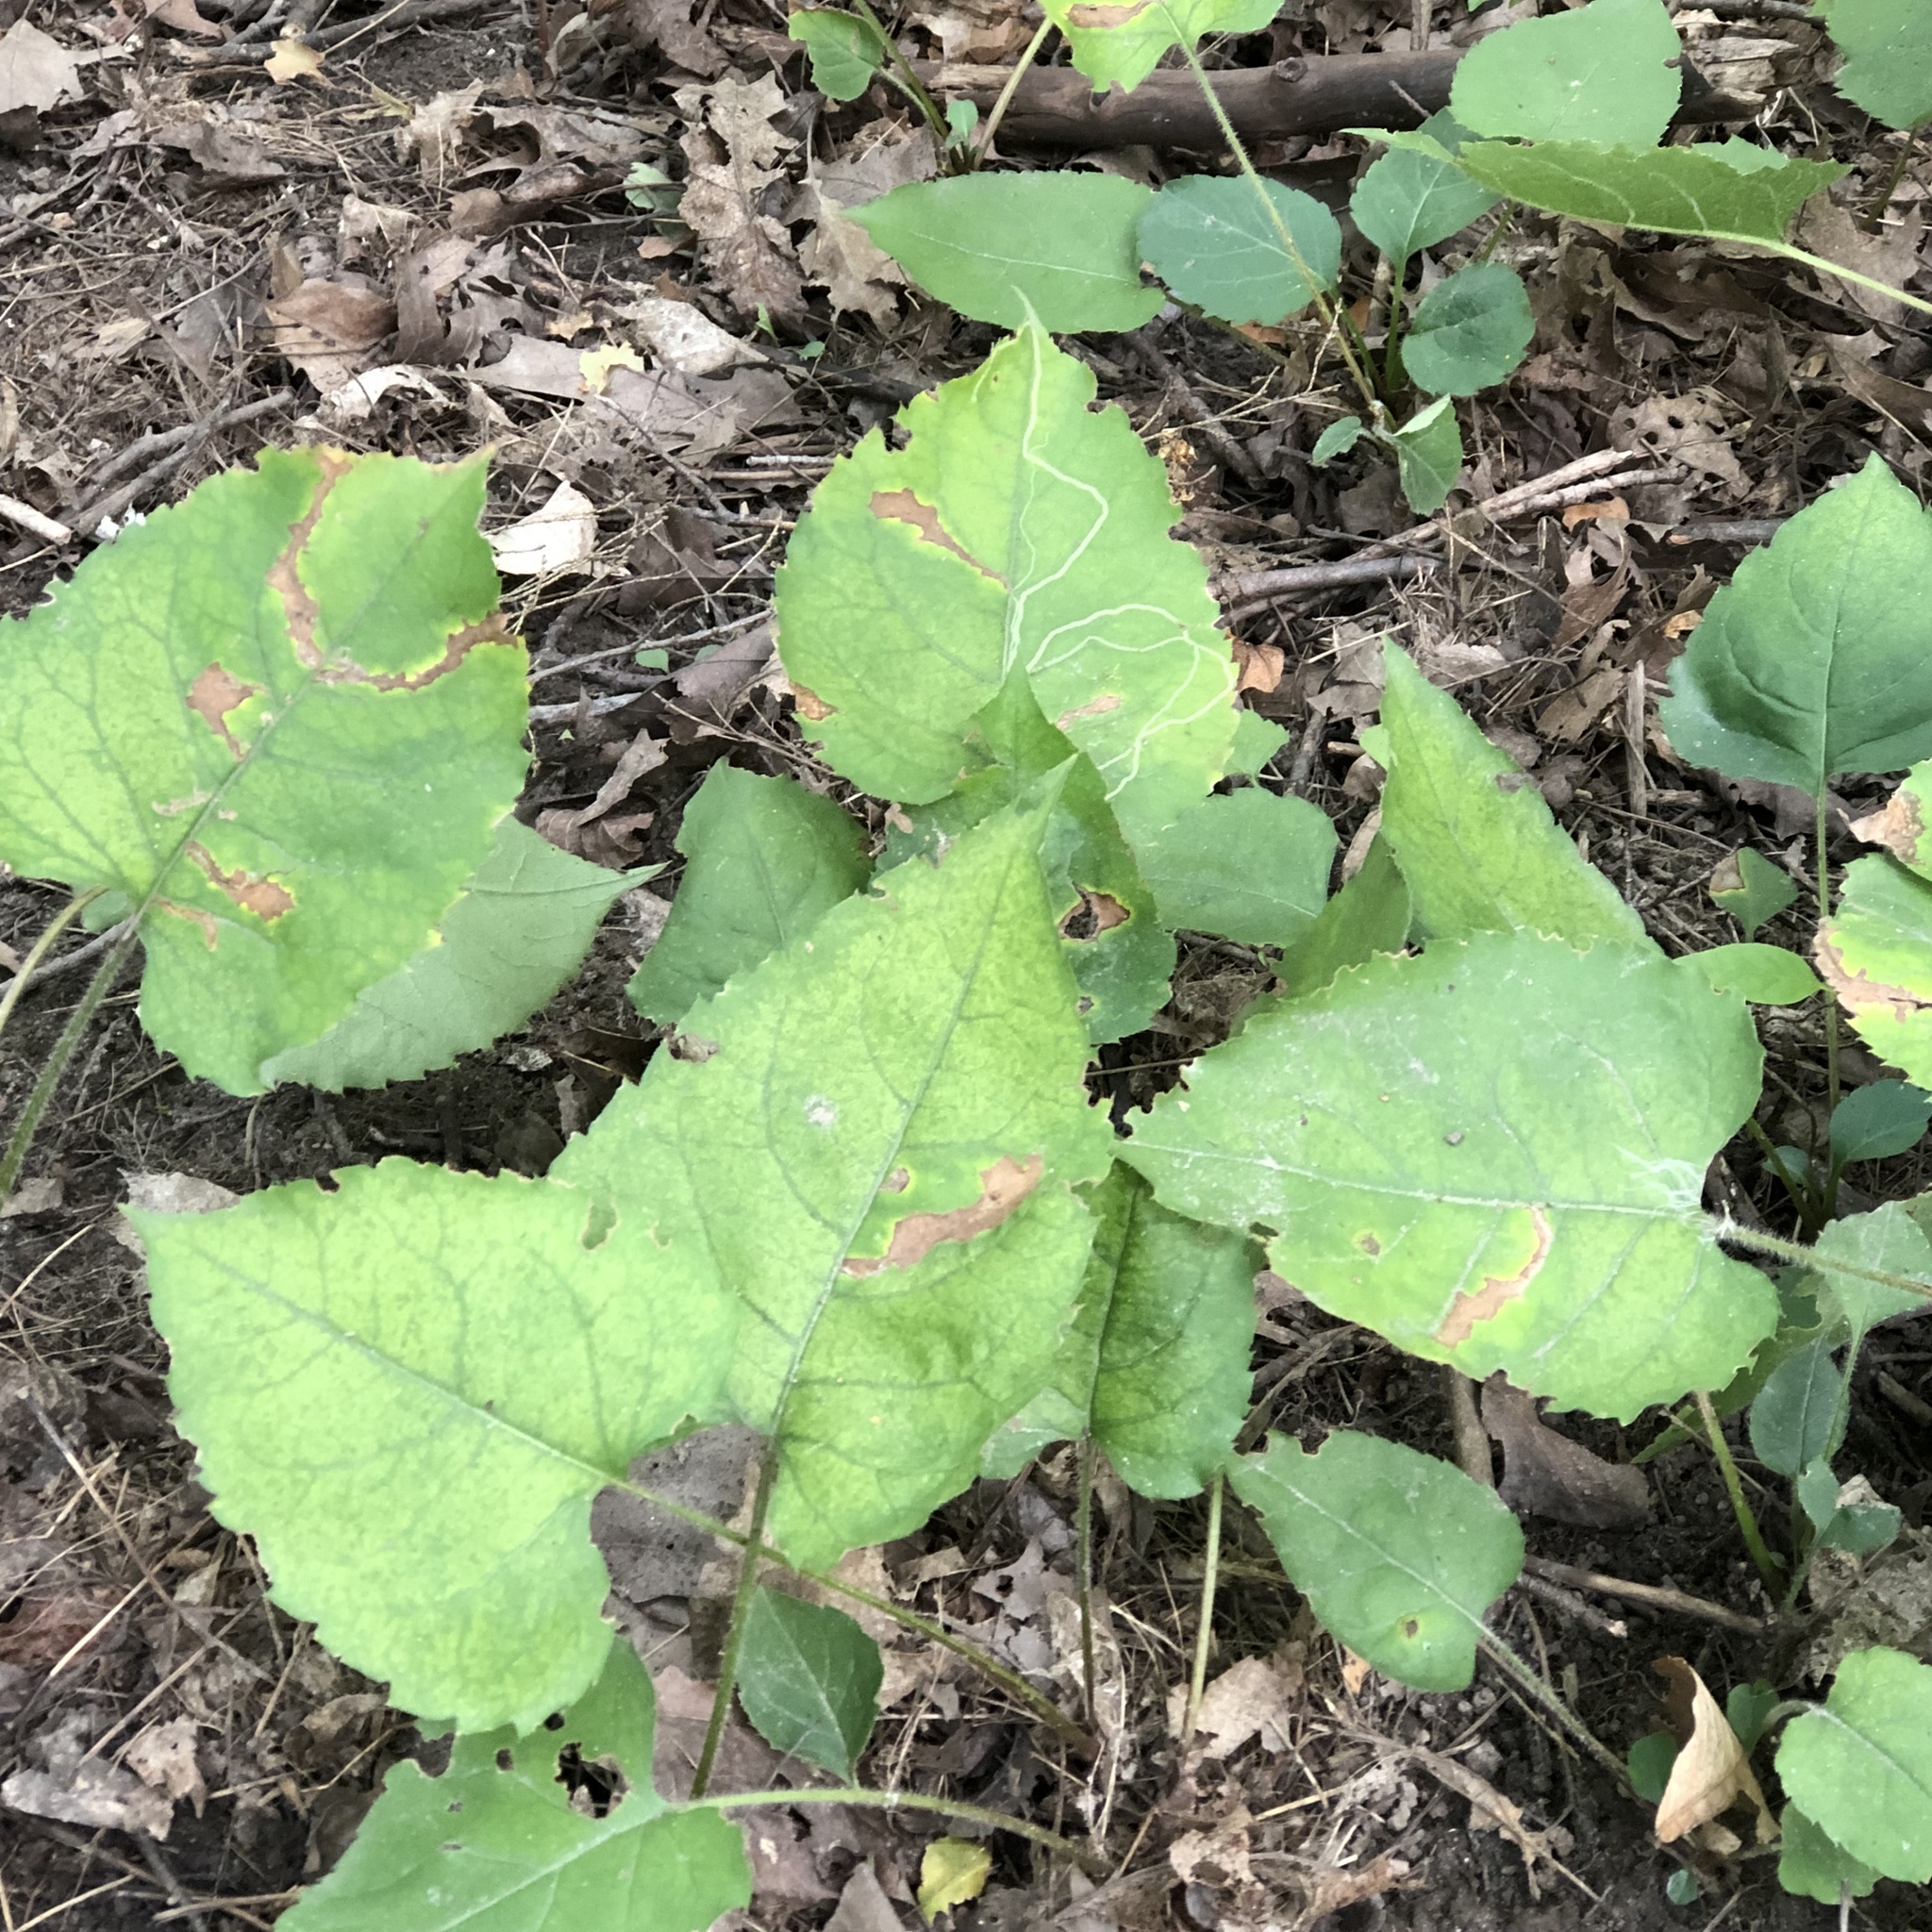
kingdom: Plantae
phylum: Tracheophyta
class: Magnoliopsida
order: Asterales
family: Asteraceae
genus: Eurybia
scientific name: Eurybia macrophylla
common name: Big-leaved aster
